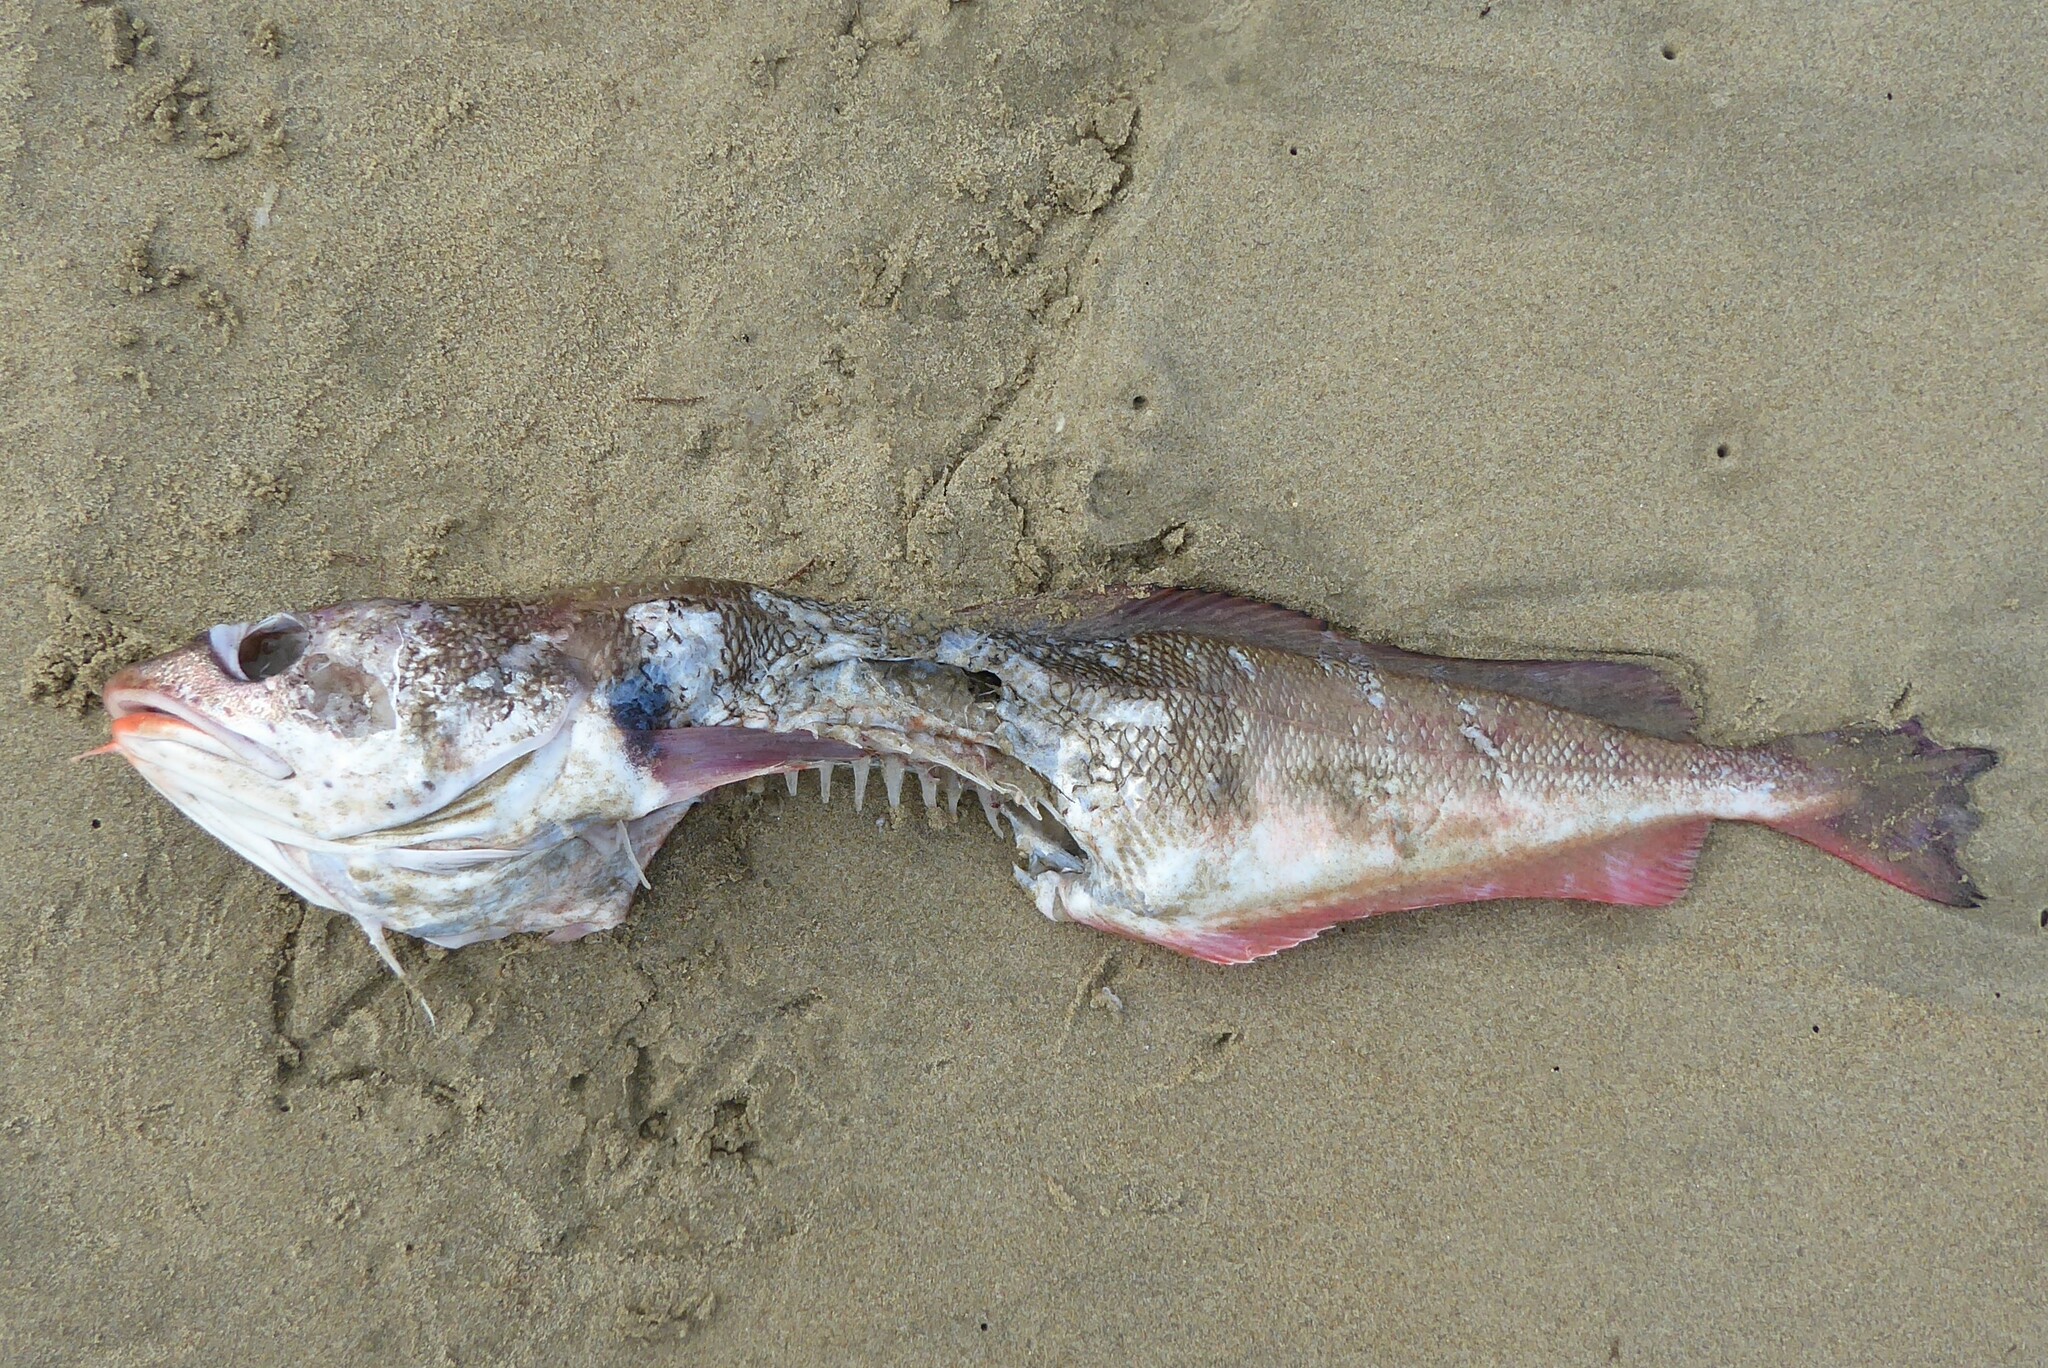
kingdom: Animalia
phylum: Chordata
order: Gadiformes
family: Moridae
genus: Pseudophycis
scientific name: Pseudophycis bachus
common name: Red cod
